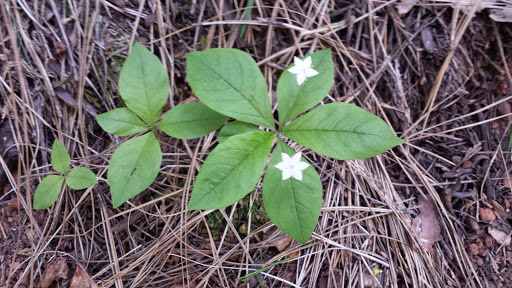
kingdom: Plantae
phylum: Tracheophyta
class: Magnoliopsida
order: Ericales
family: Primulaceae
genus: Lysimachia
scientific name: Lysimachia latifolia
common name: Pacific starflower
